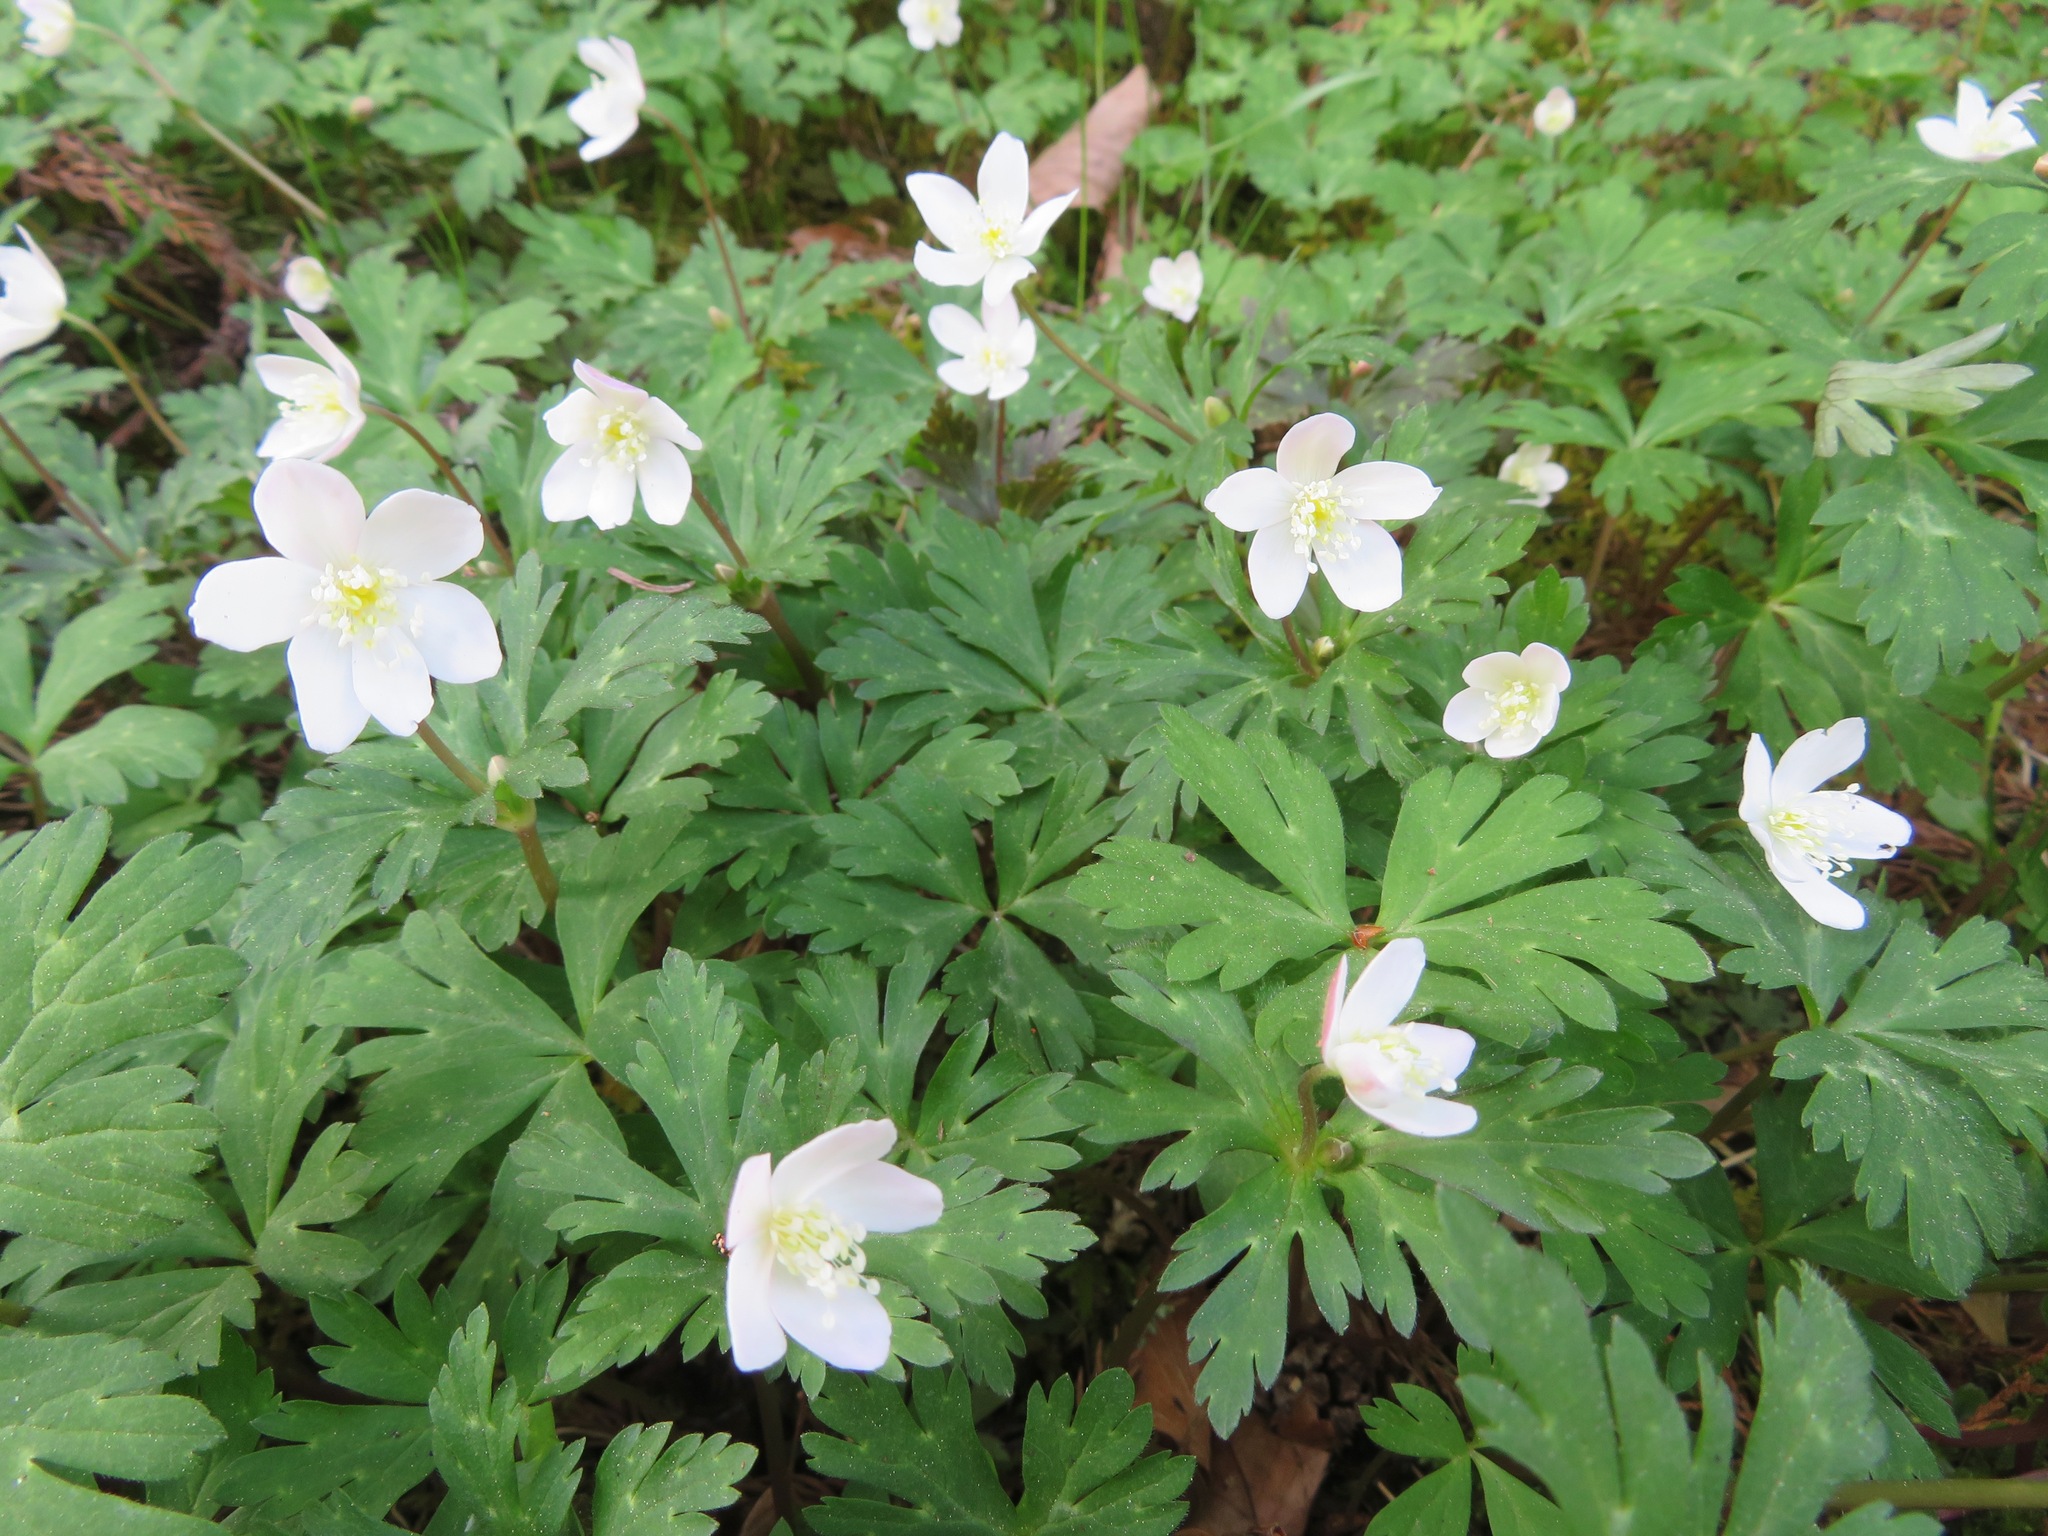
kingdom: Plantae
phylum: Tracheophyta
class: Magnoliopsida
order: Ranunculales
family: Ranunculaceae
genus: Anemonastrum
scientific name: Anemonastrum flaccidum
